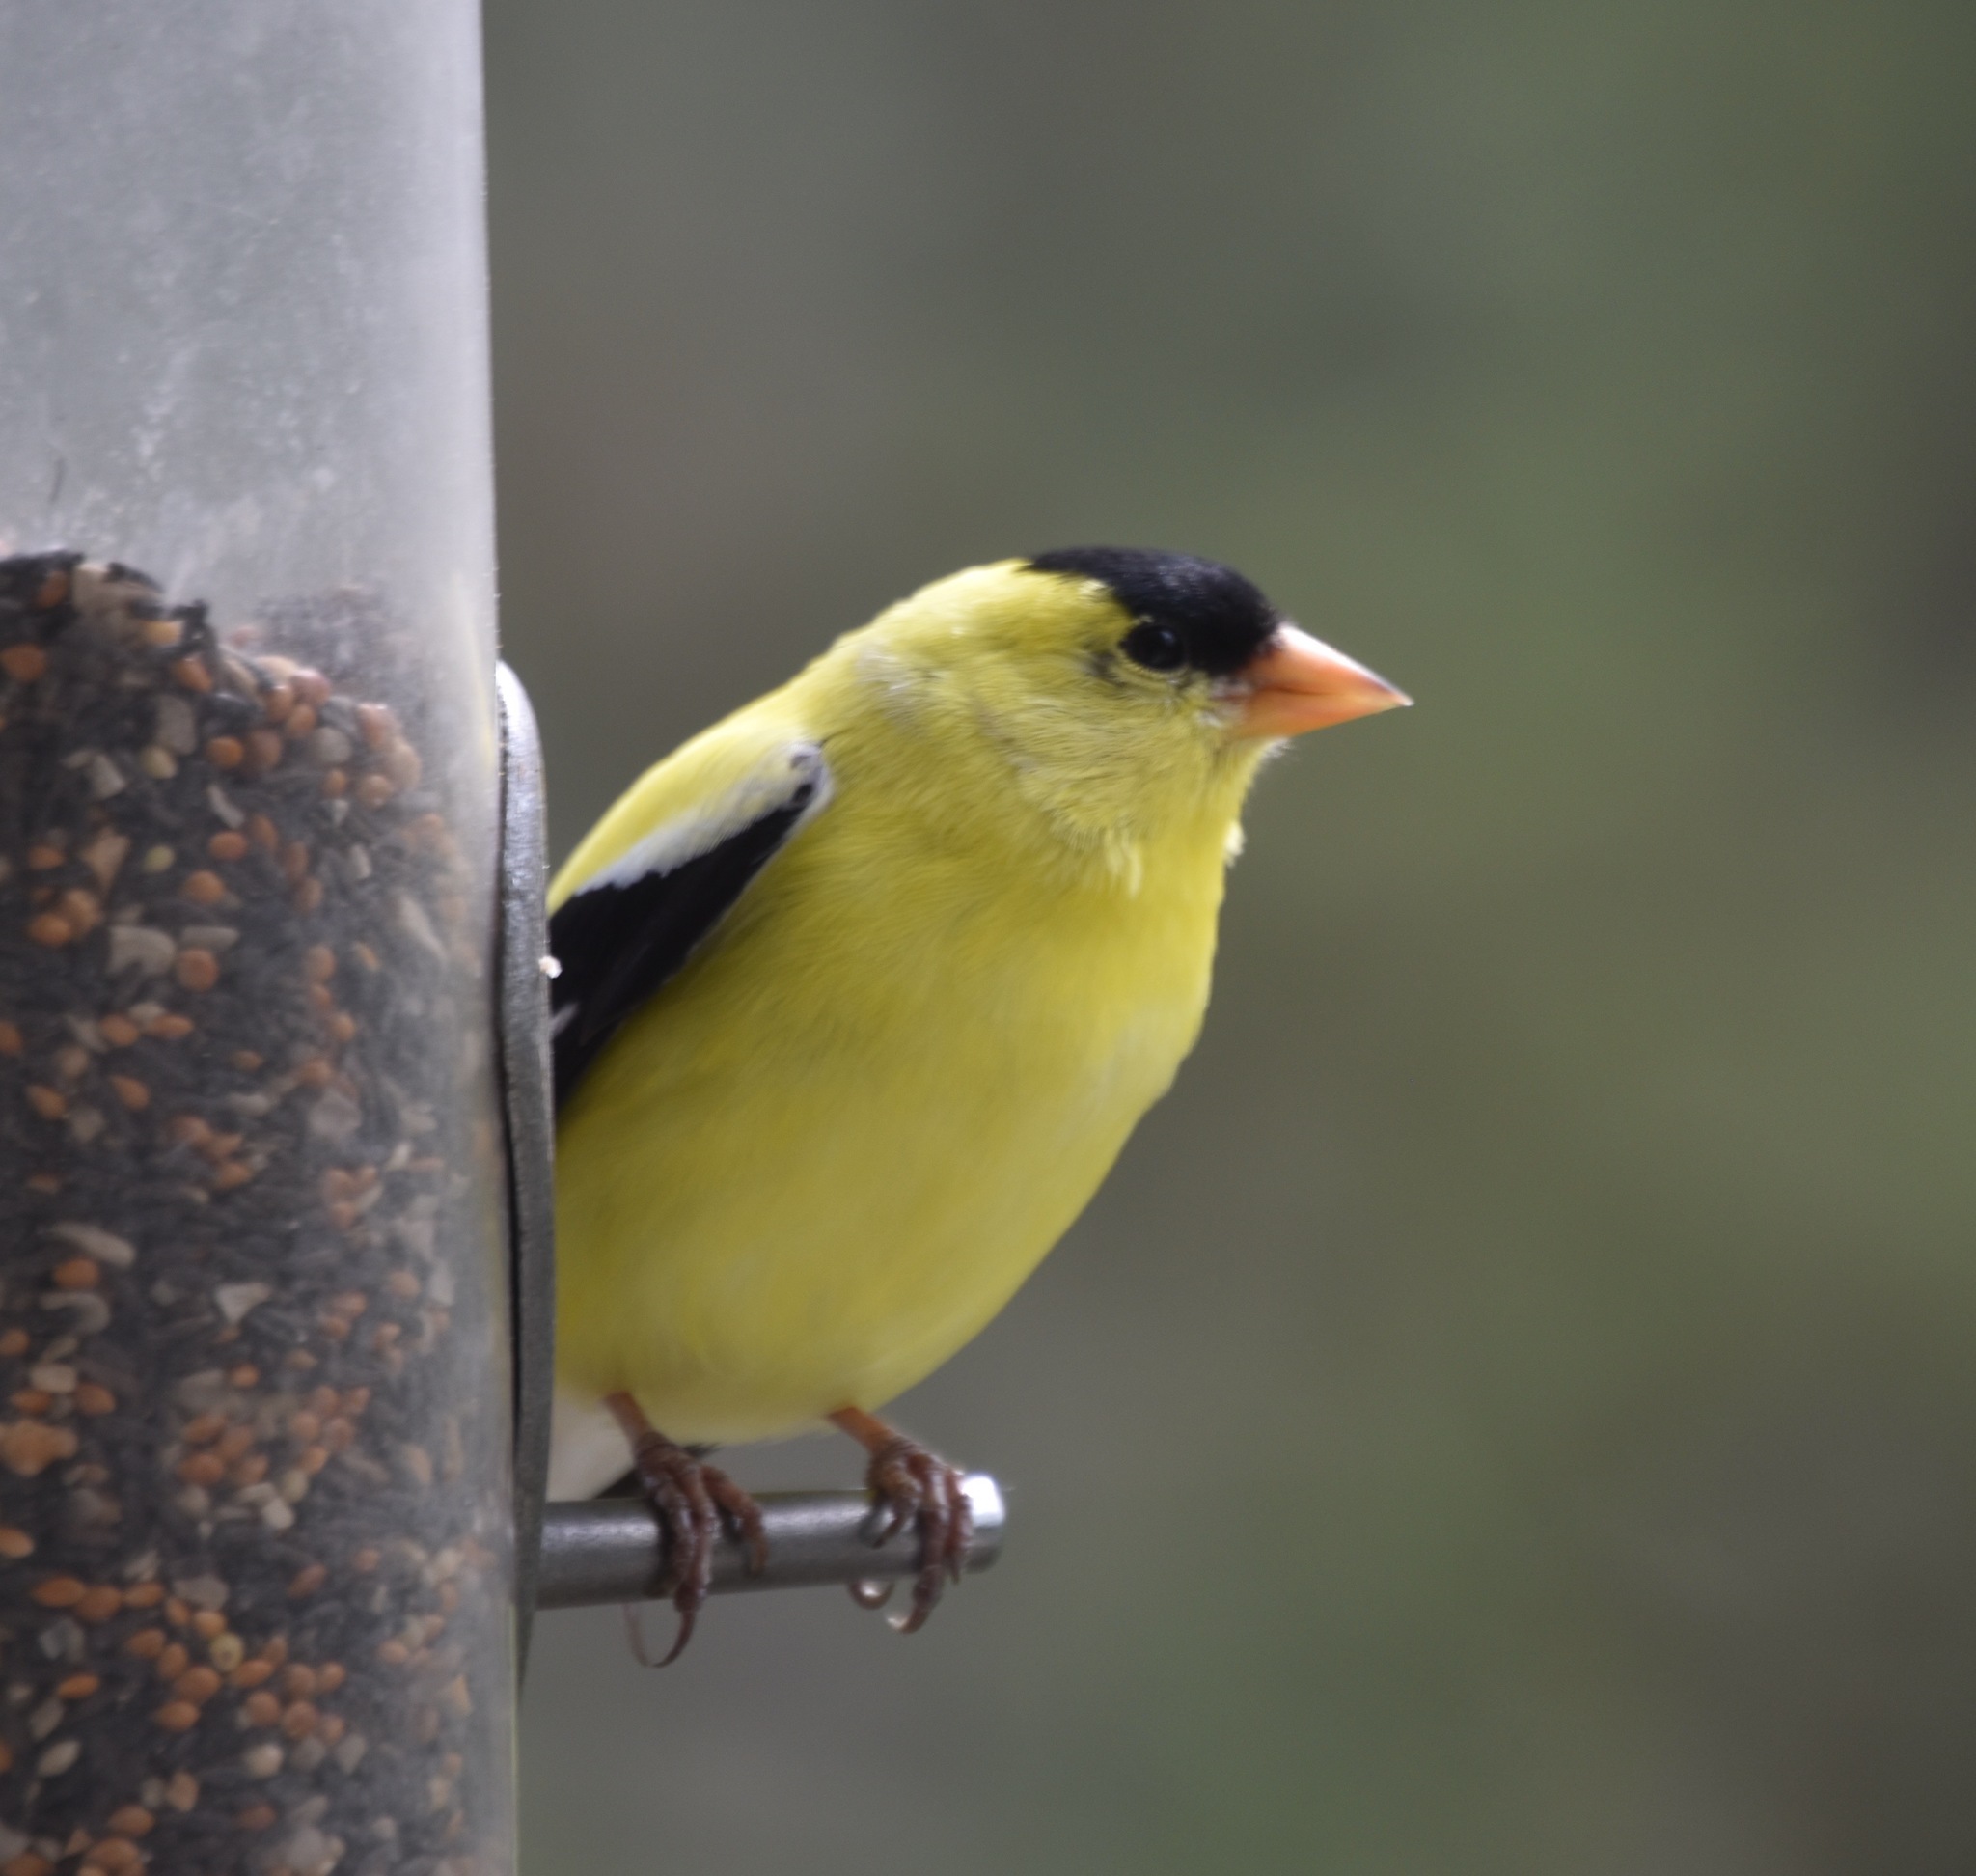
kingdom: Animalia
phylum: Chordata
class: Aves
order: Passeriformes
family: Fringillidae
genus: Spinus
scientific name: Spinus tristis
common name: American goldfinch
